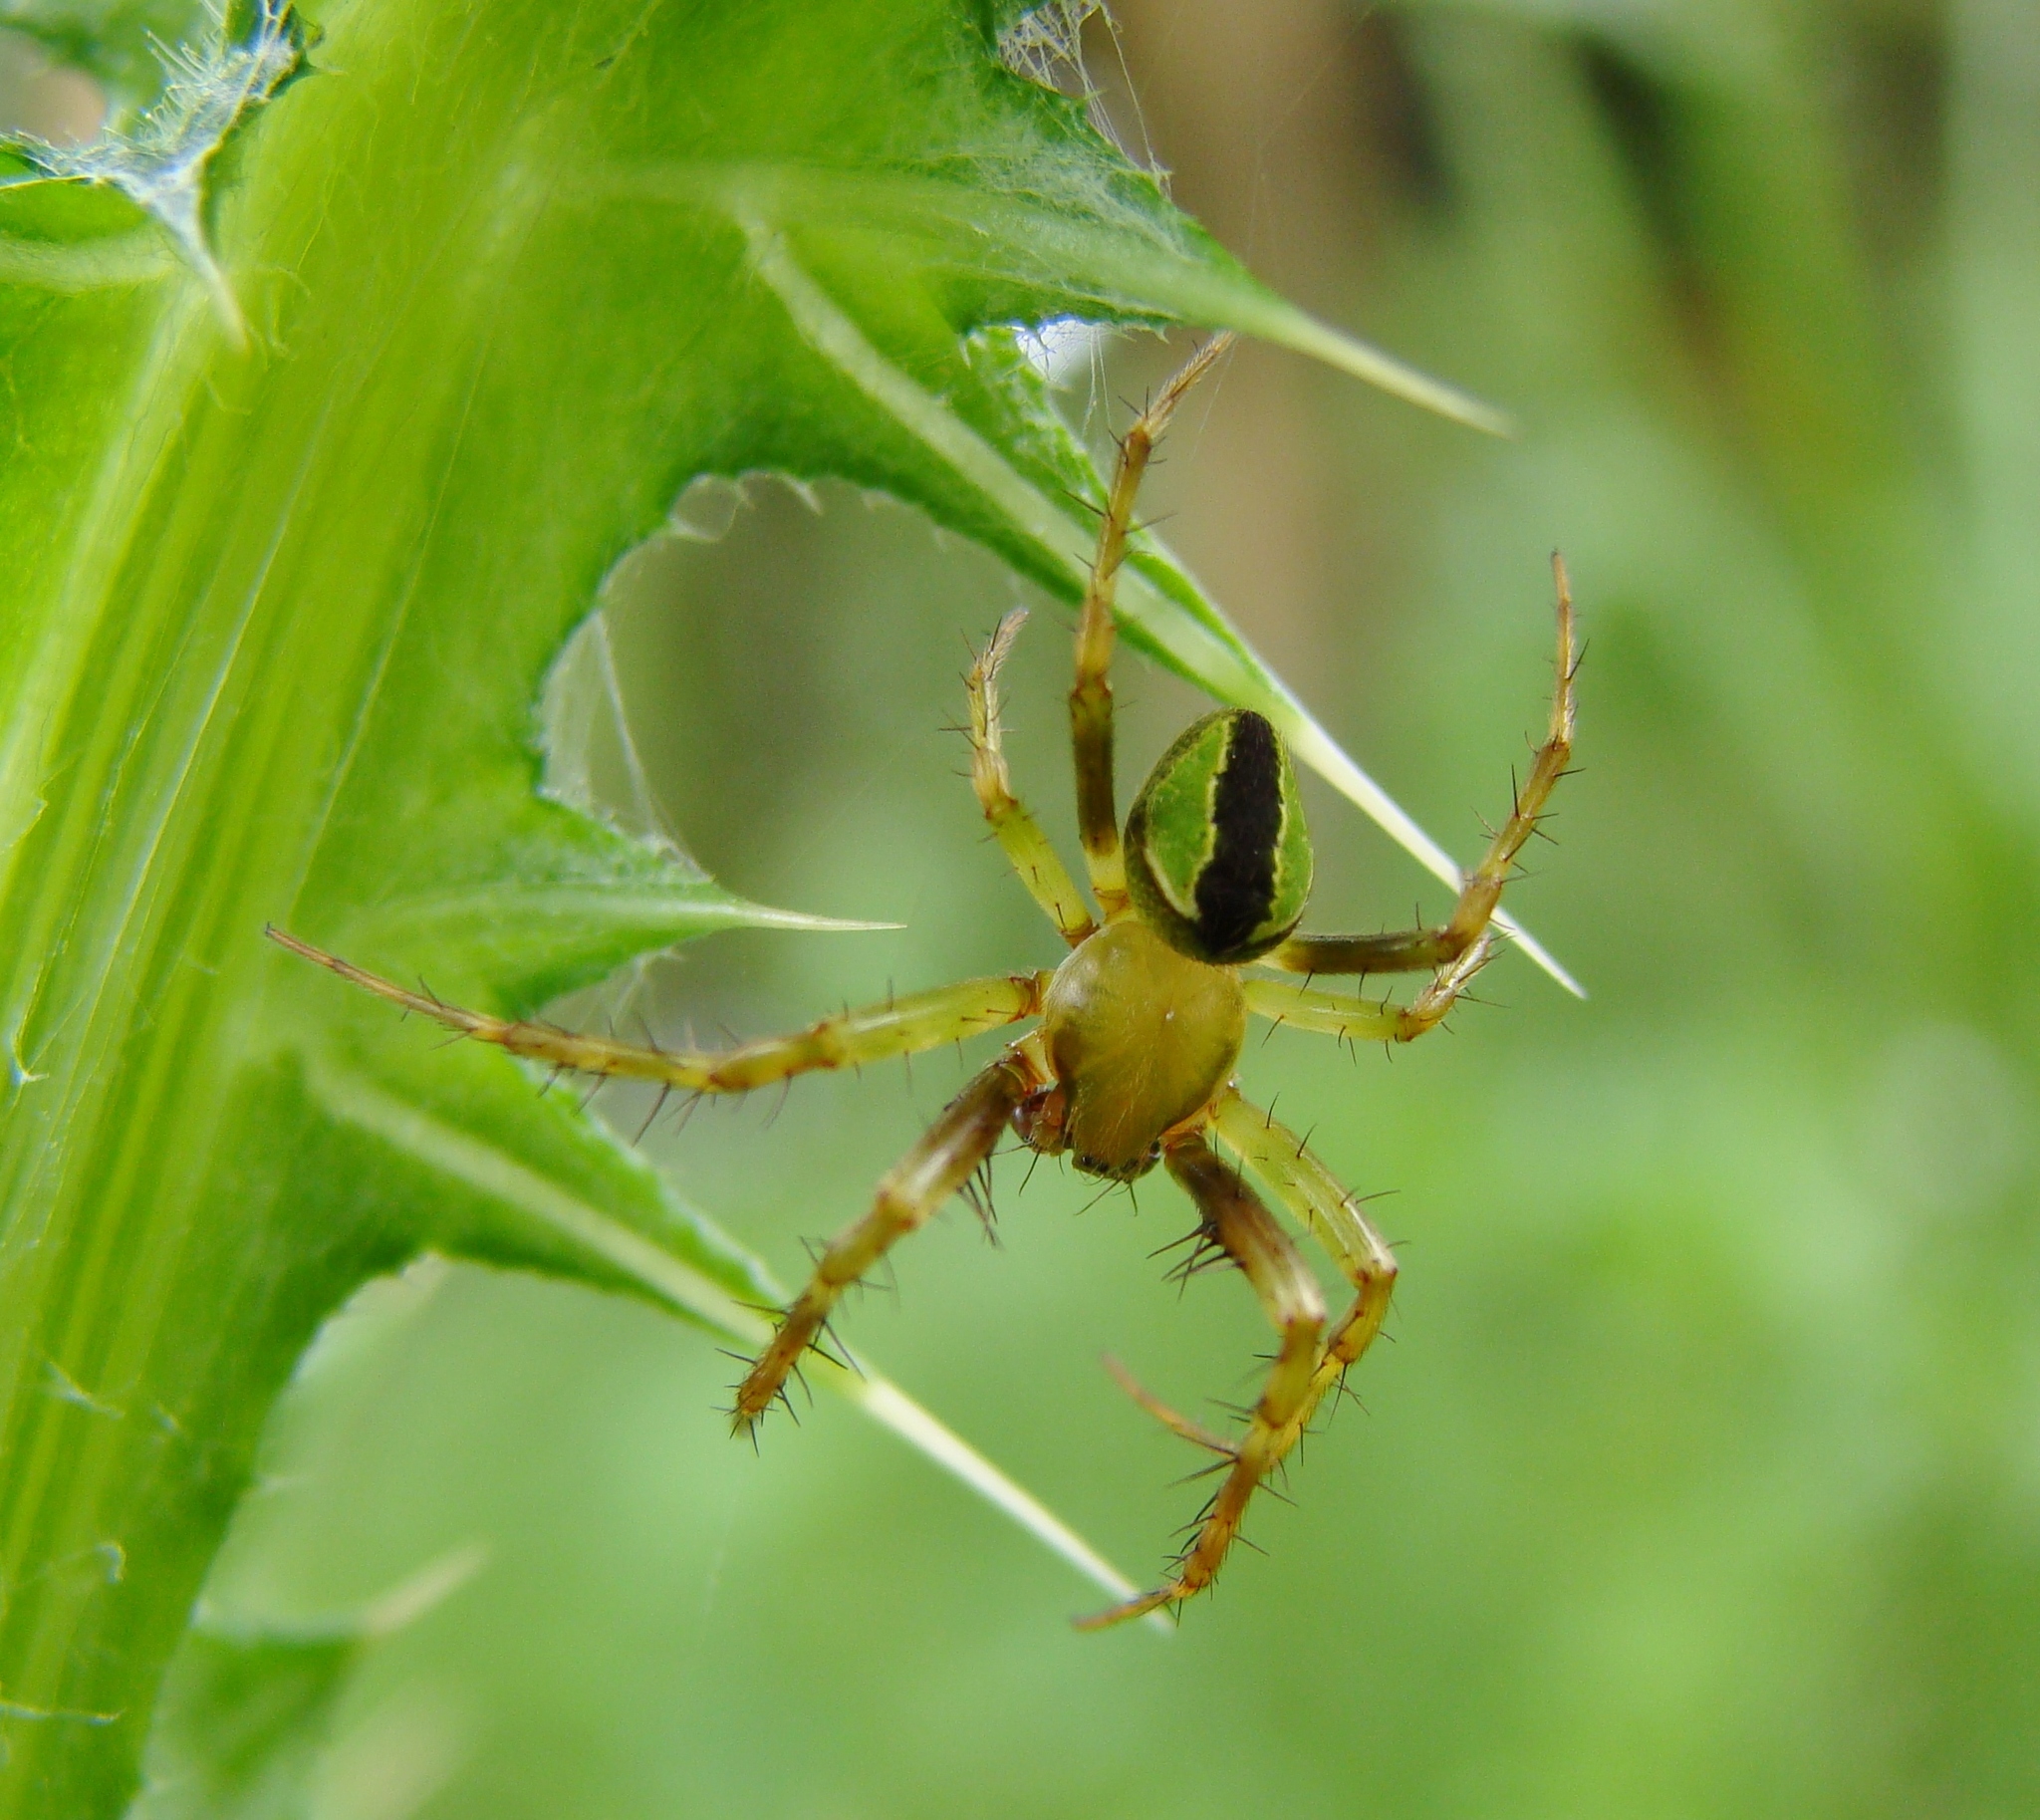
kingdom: Animalia
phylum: Arthropoda
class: Arachnida
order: Araneae
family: Araneidae
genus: Colaranea
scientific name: Colaranea melanoviridis
